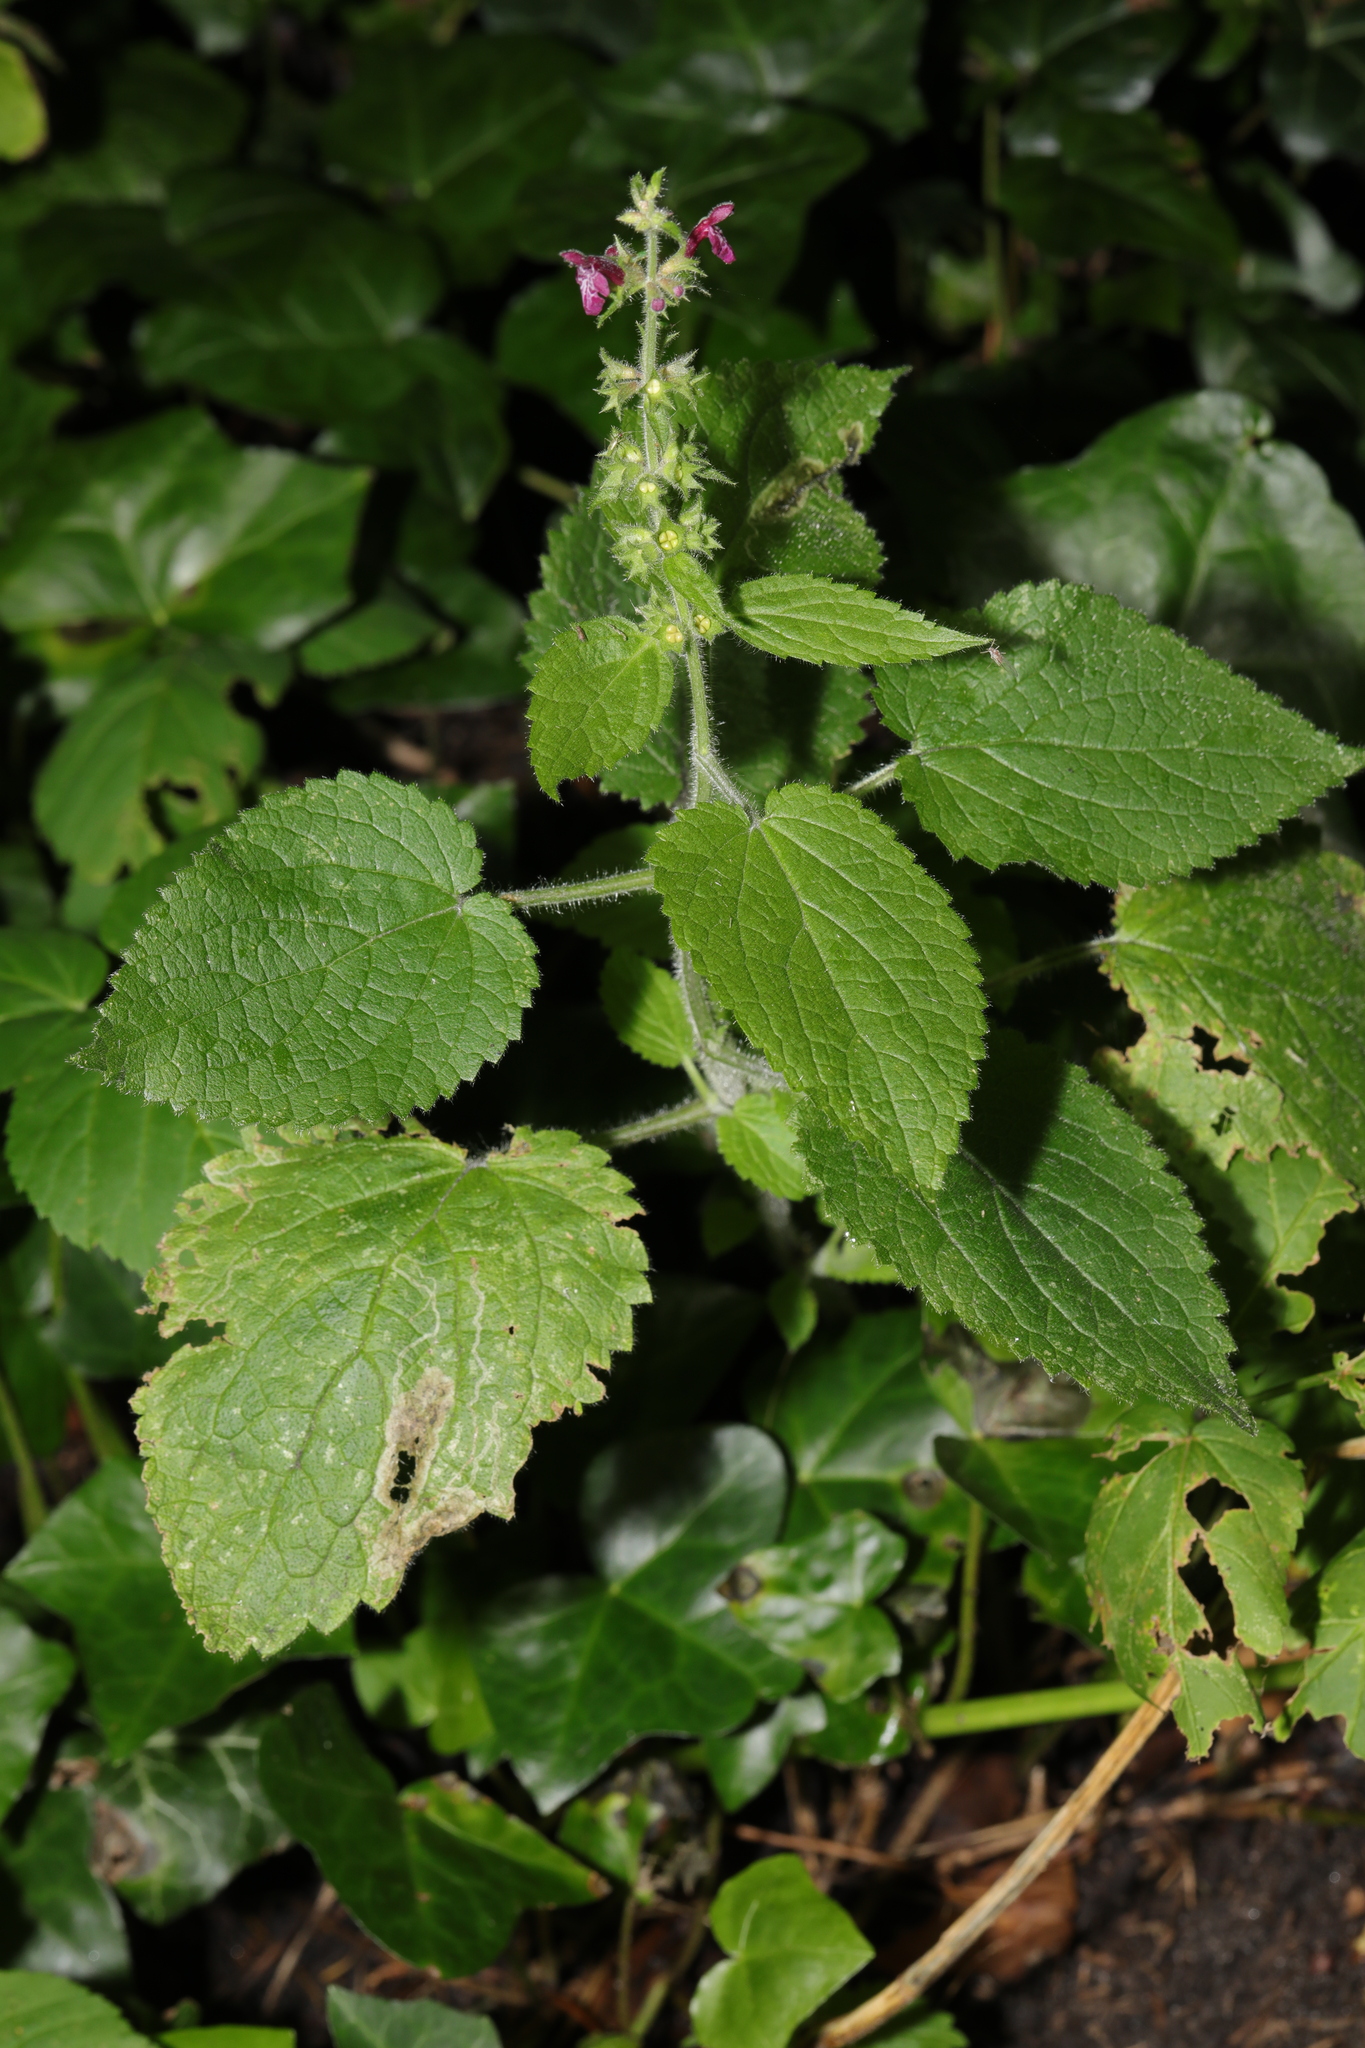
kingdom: Plantae
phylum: Tracheophyta
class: Magnoliopsida
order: Lamiales
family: Lamiaceae
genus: Stachys
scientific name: Stachys sylvatica
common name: Hedge woundwort
